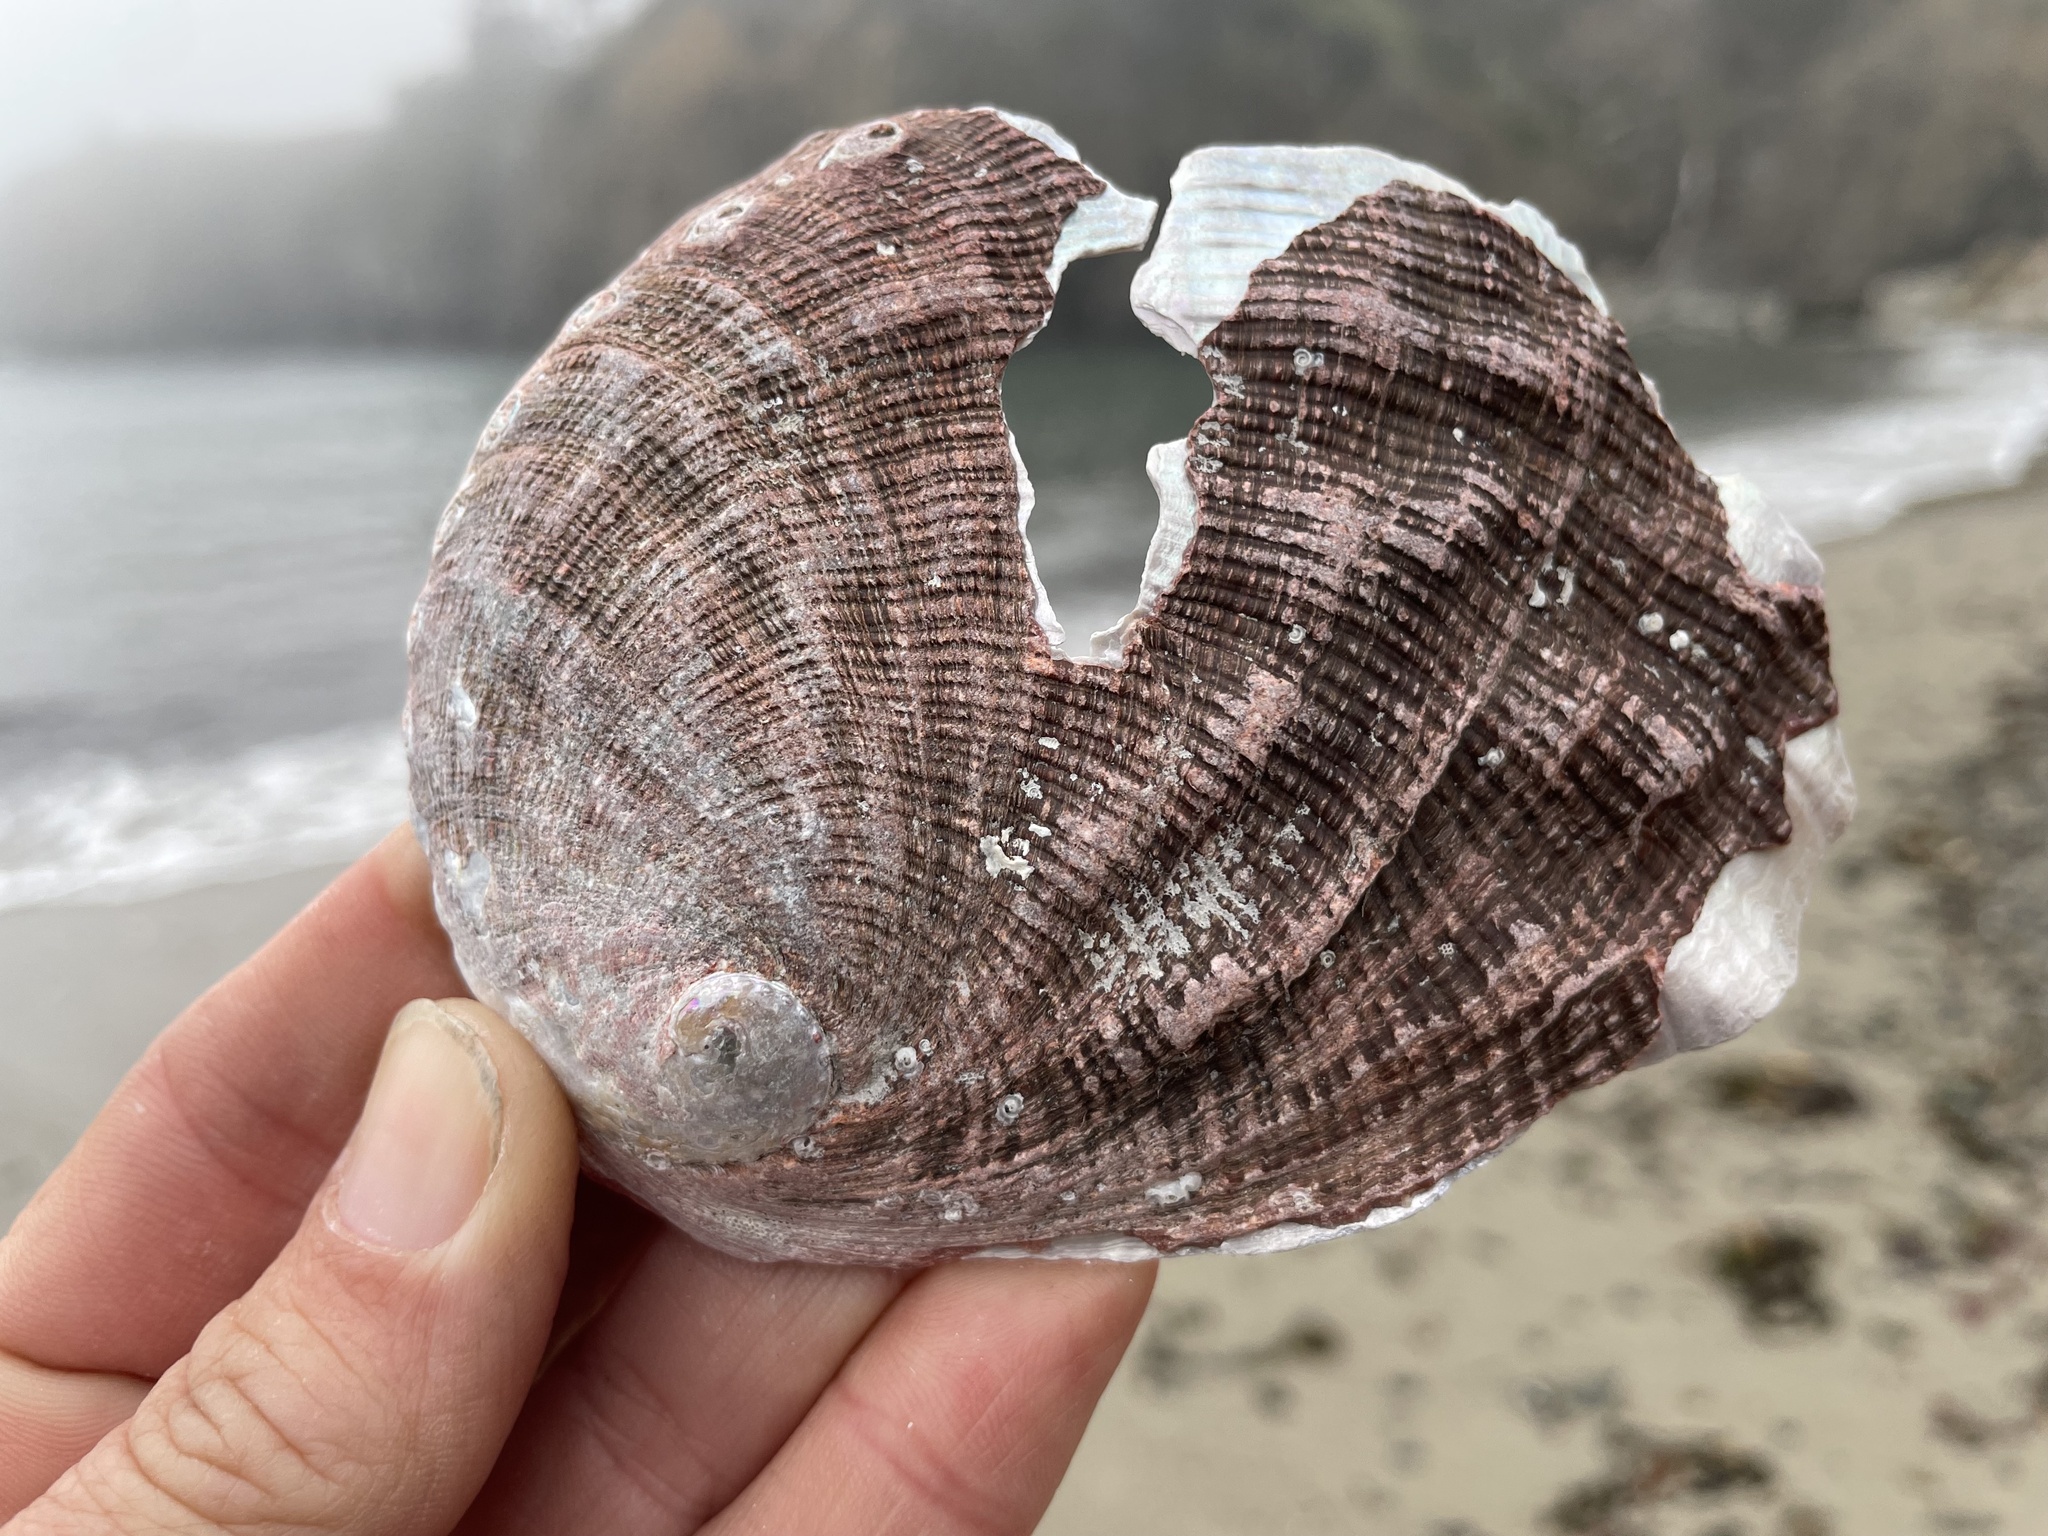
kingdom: Animalia
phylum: Mollusca
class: Gastropoda
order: Lepetellida
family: Haliotidae
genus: Haliotis
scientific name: Haliotis rufescens
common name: Red abalone
